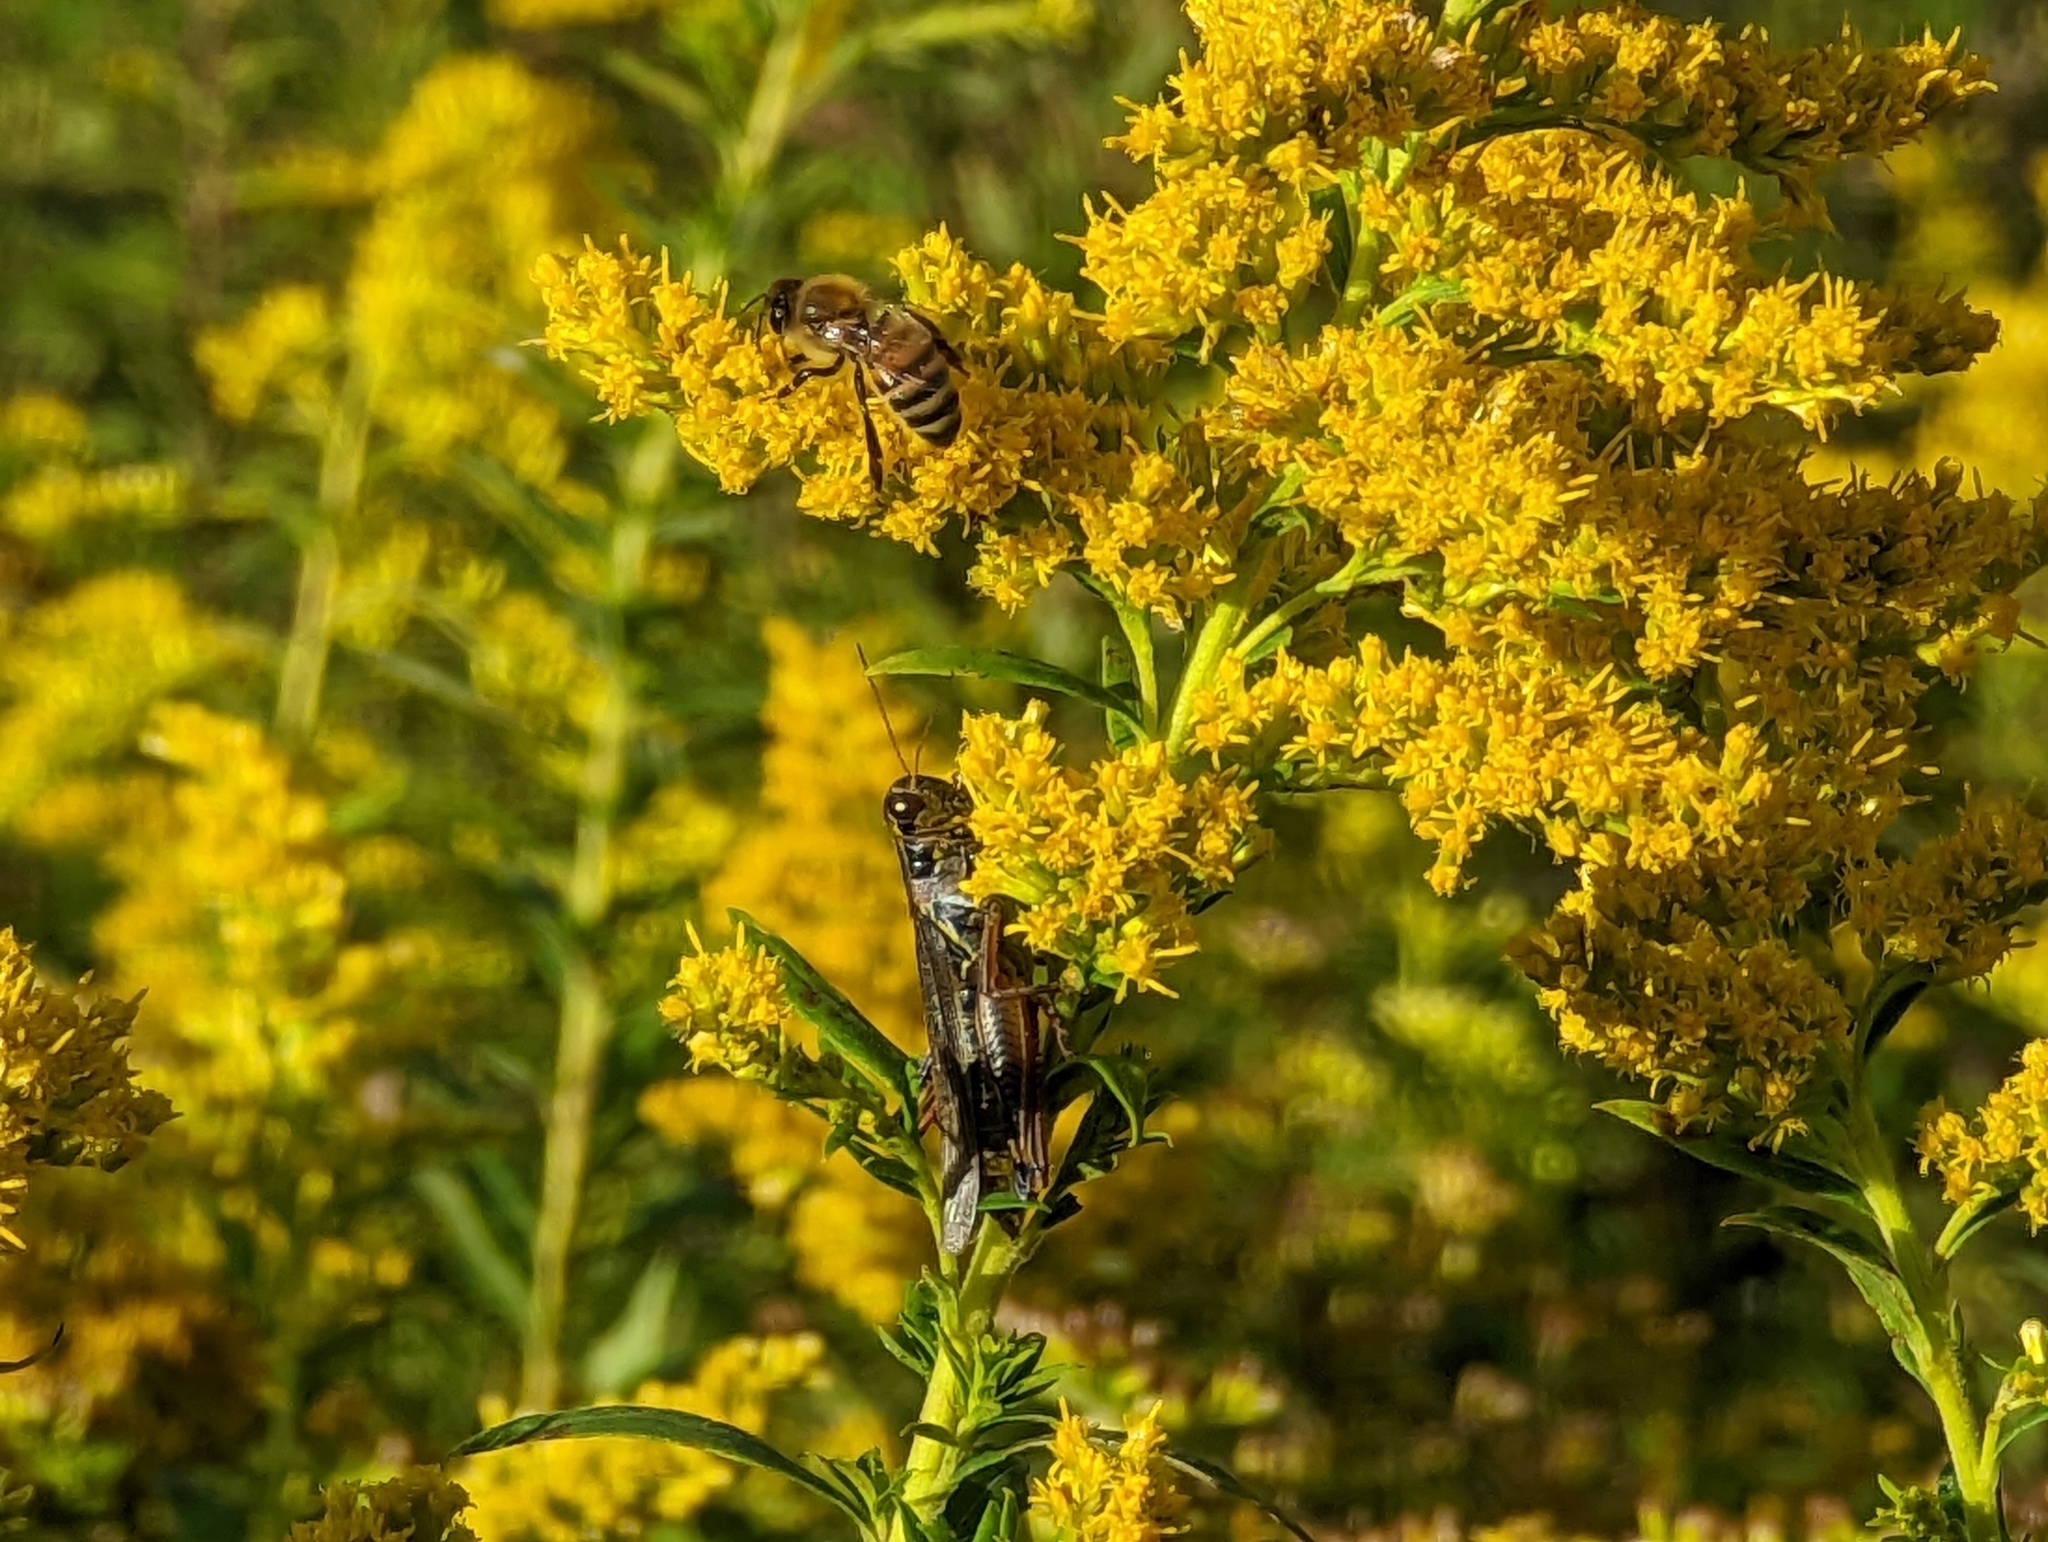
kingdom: Animalia
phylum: Arthropoda
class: Insecta
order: Hymenoptera
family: Apidae
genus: Apis
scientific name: Apis mellifera
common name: Honey bee
